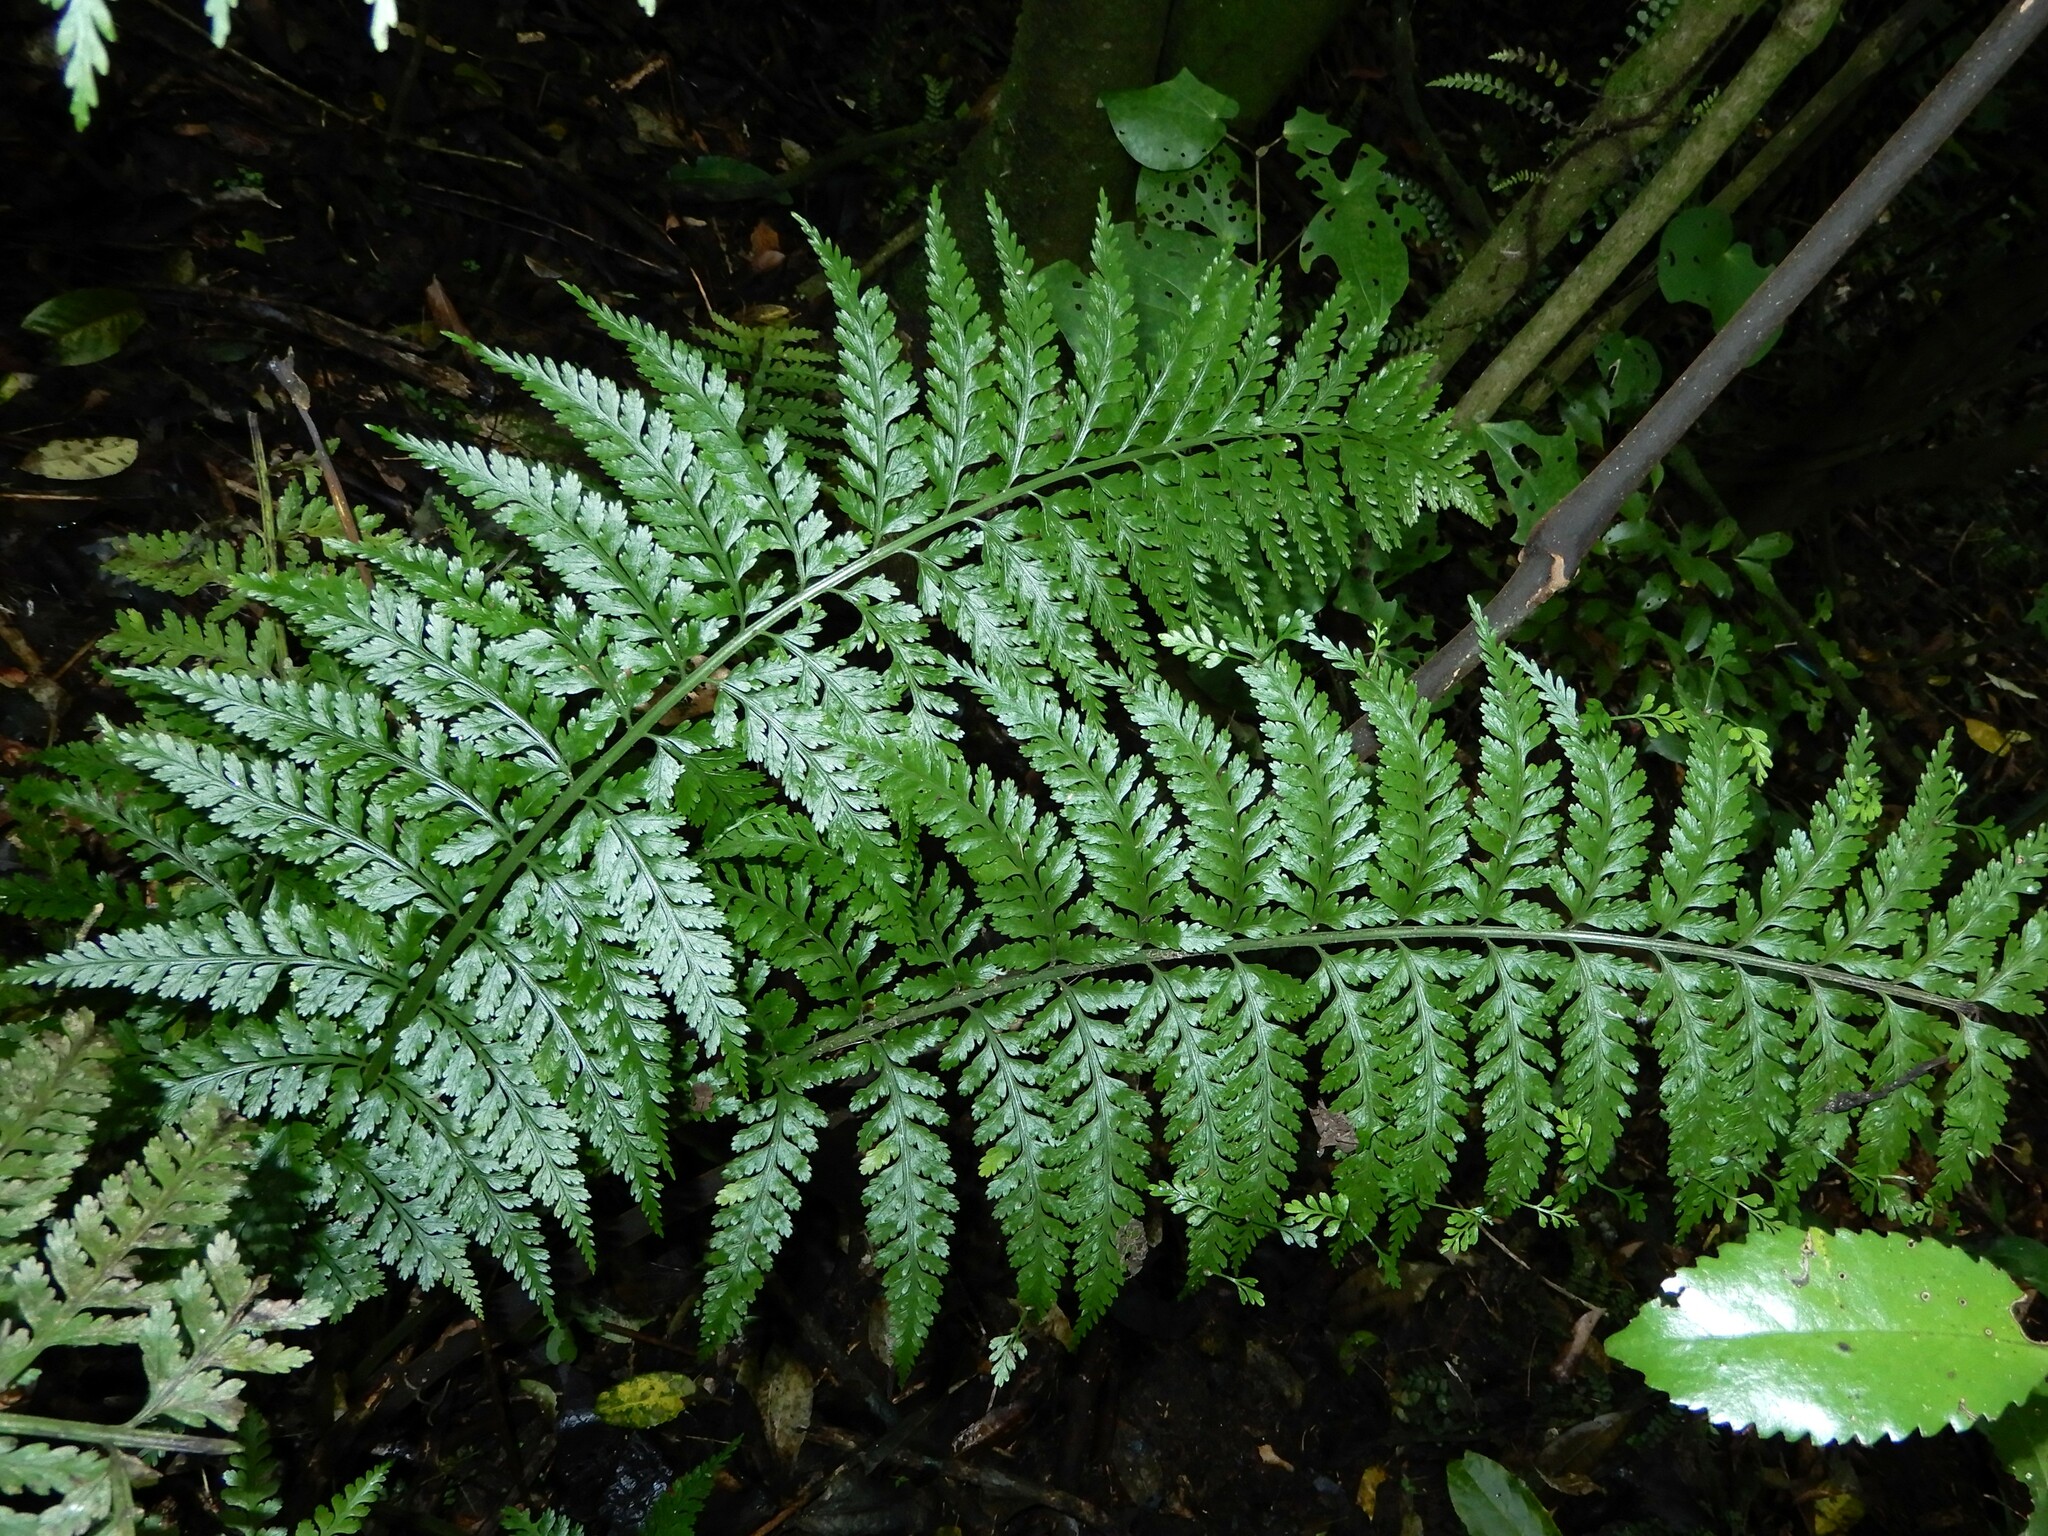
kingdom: Plantae
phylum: Tracheophyta
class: Polypodiopsida
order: Polypodiales
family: Aspleniaceae
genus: Asplenium
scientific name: Asplenium bulbiferum
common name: Mother fern
